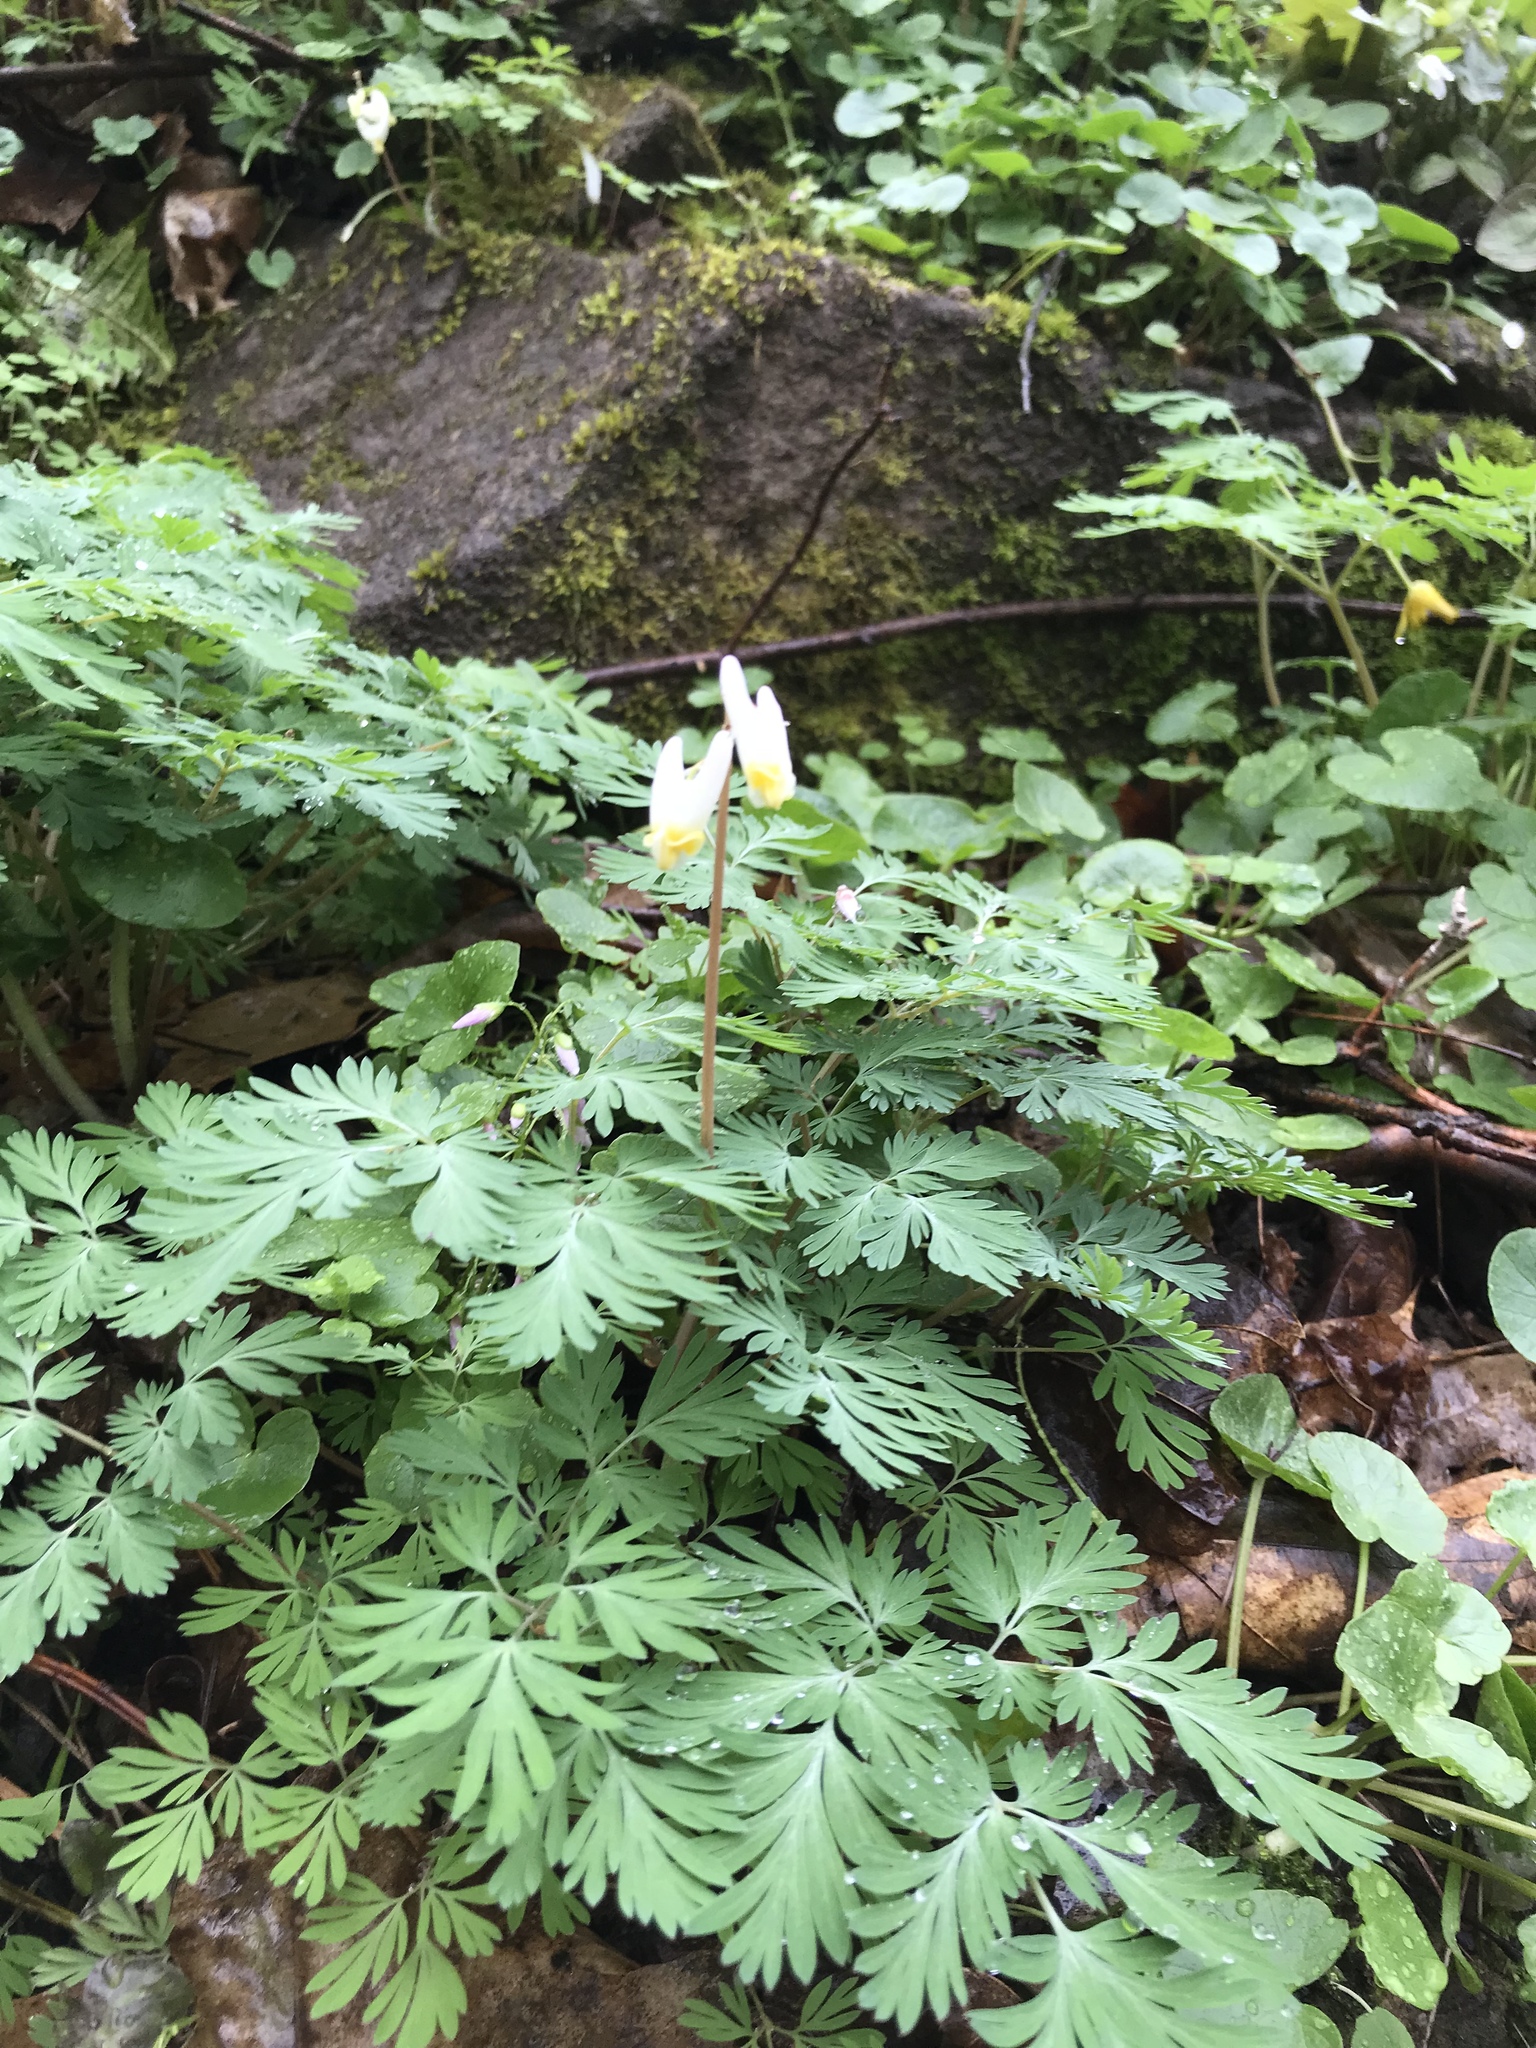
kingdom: Plantae
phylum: Tracheophyta
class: Magnoliopsida
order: Ranunculales
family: Papaveraceae
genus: Dicentra
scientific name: Dicentra cucullaria
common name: Dutchman's breeches
